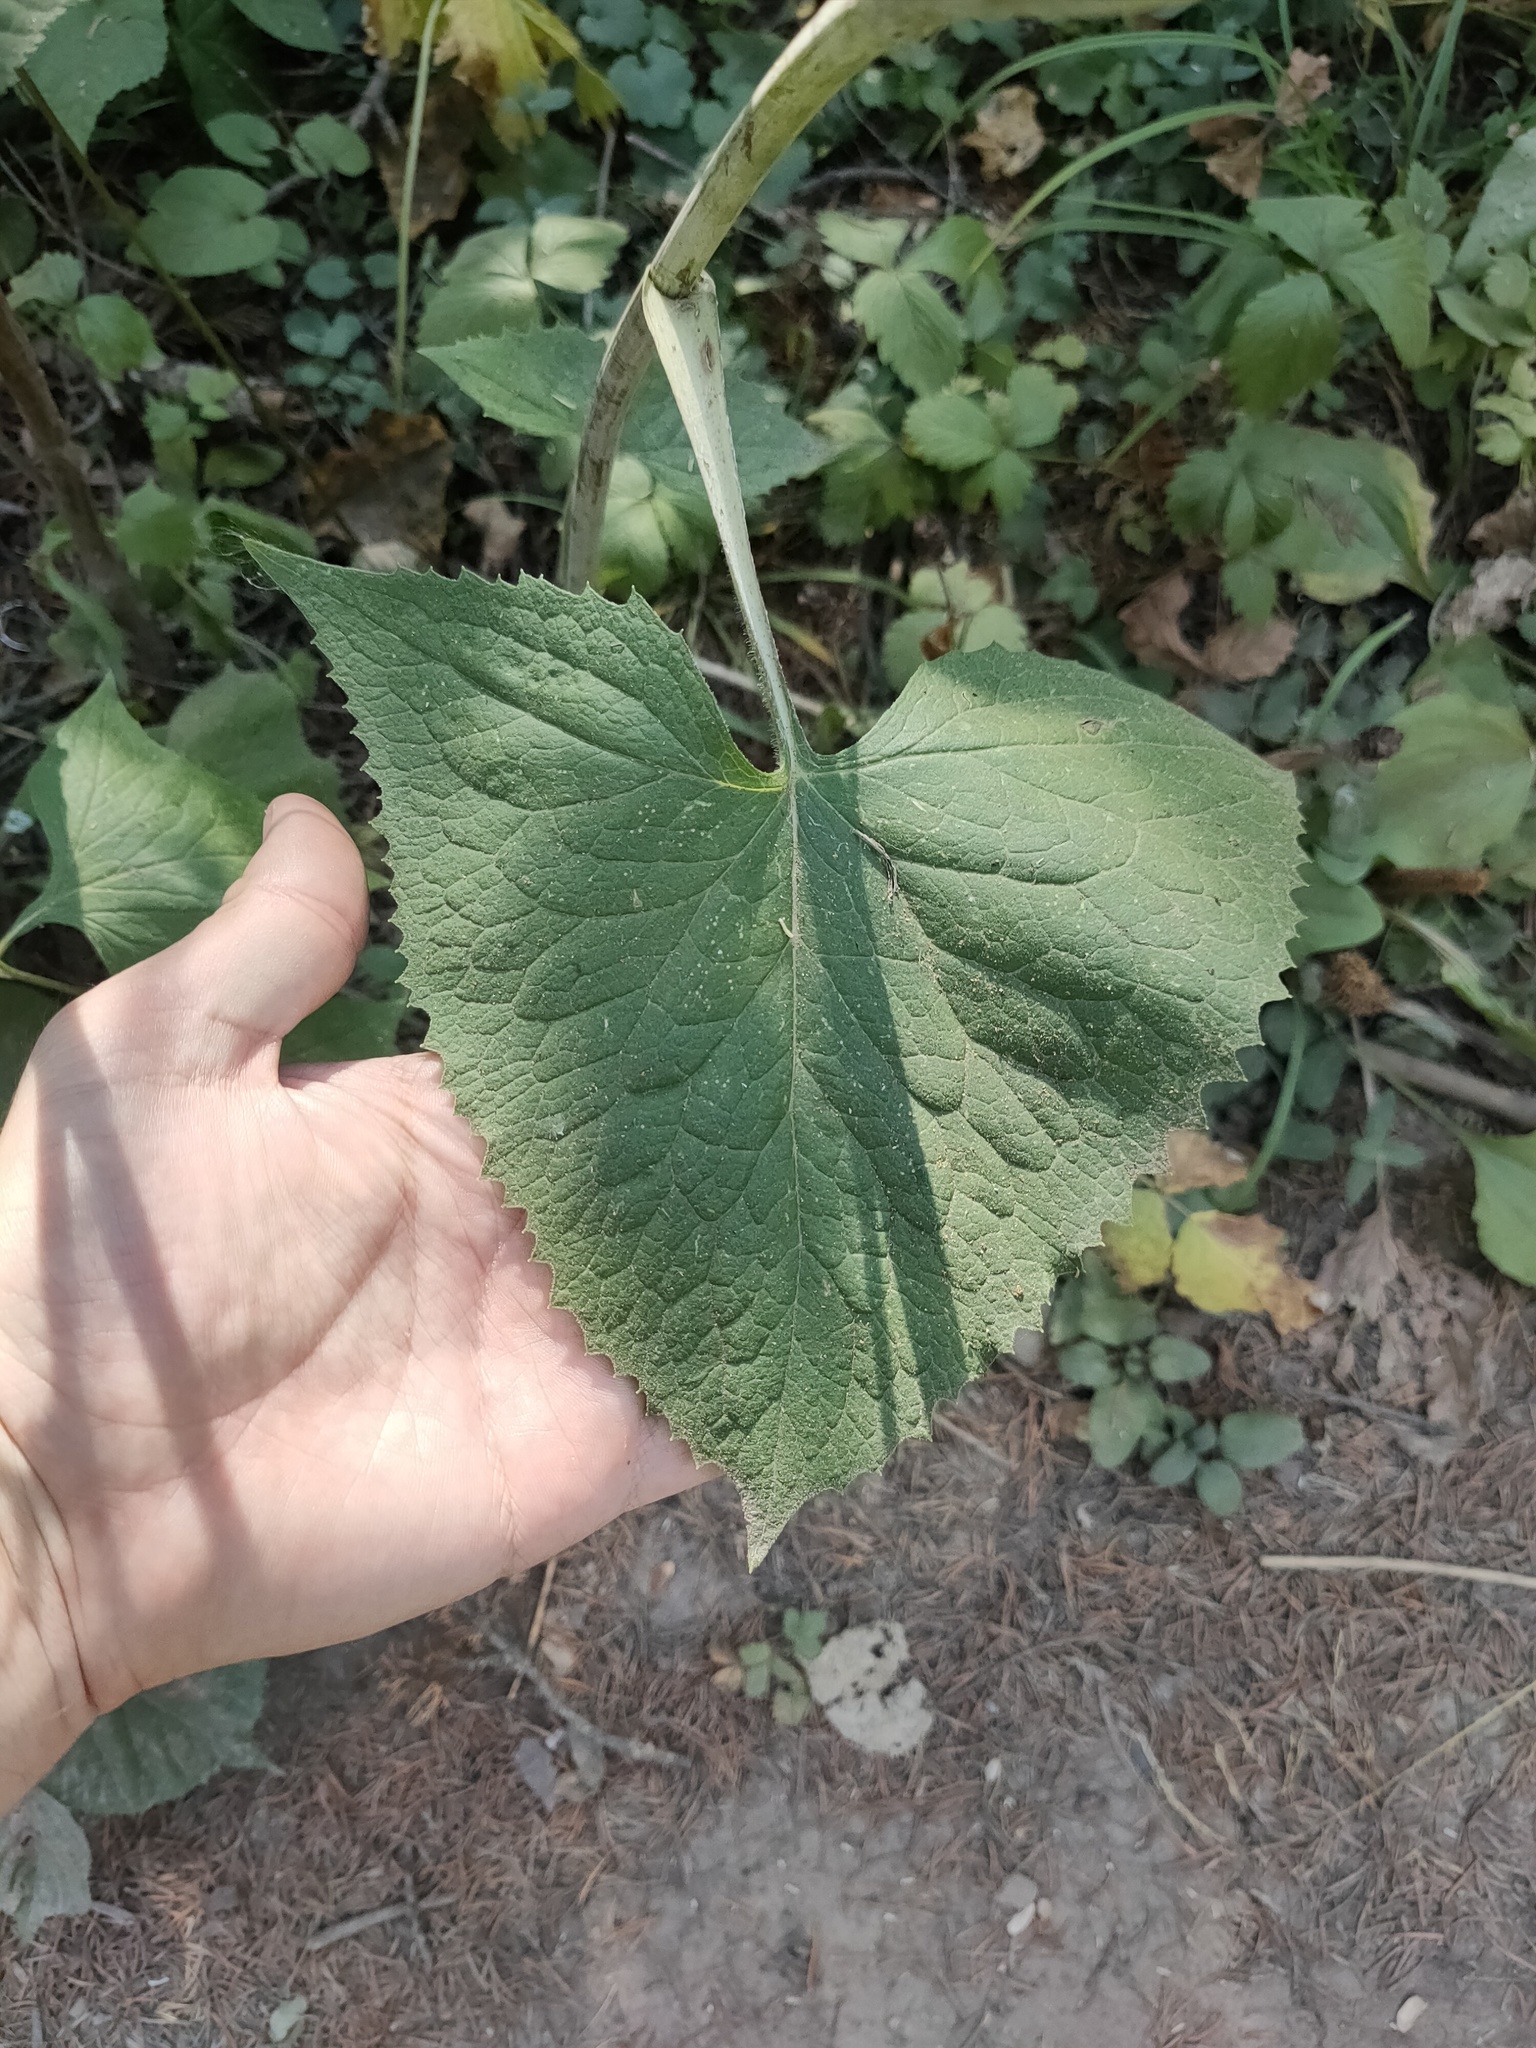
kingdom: Plantae
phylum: Tracheophyta
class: Magnoliopsida
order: Asterales
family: Asteraceae
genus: Parasenecio
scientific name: Parasenecio hastatus
